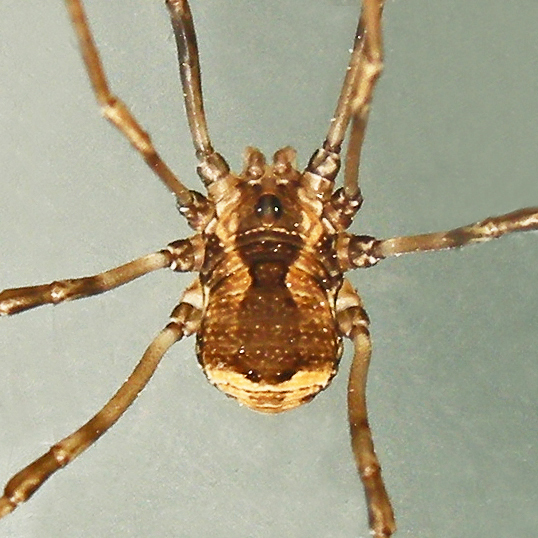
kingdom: Animalia
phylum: Arthropoda
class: Arachnida
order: Opiliones
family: Sclerosomatidae
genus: Leiobunum
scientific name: Leiobunum verrucosum
